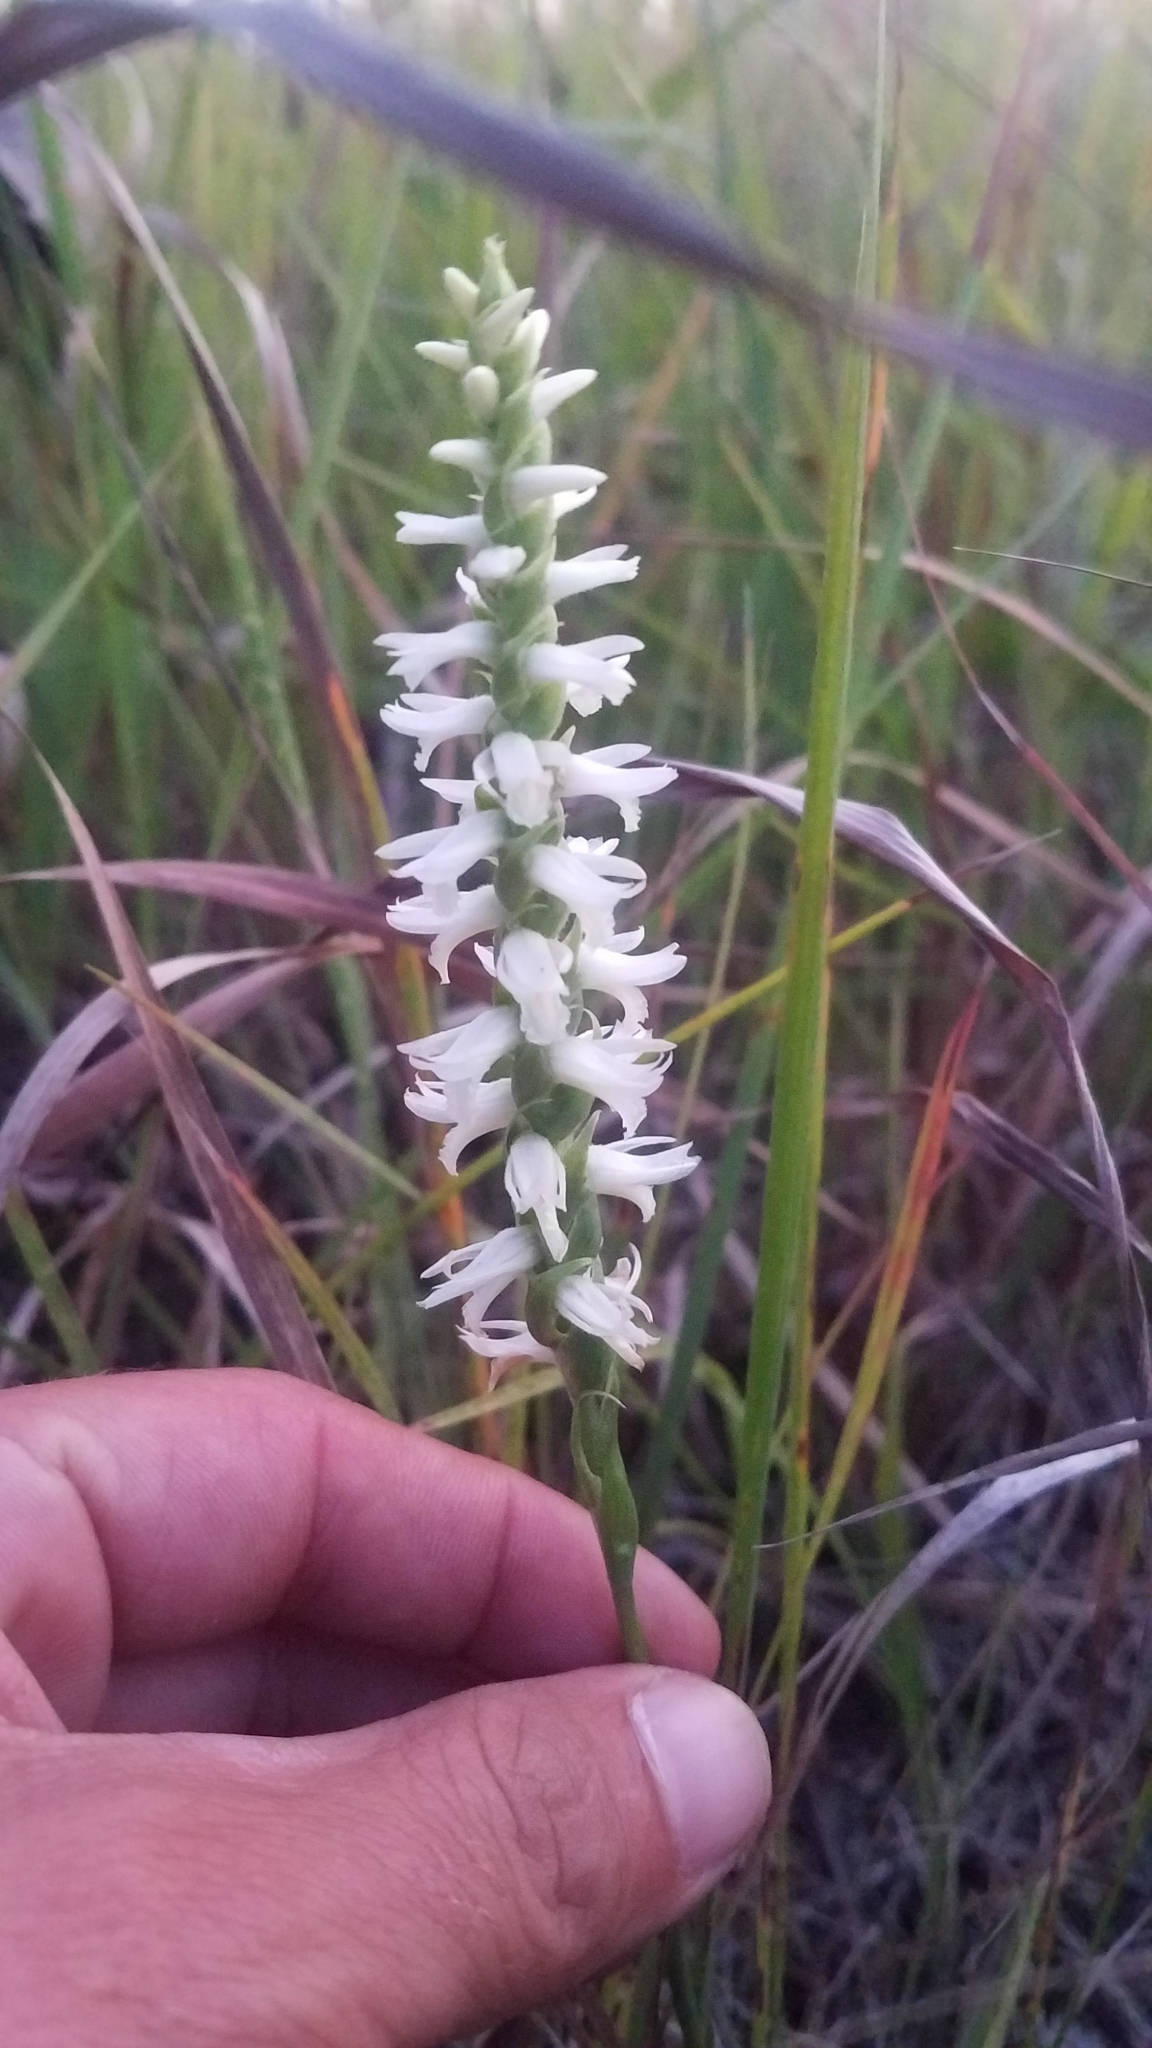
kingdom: Plantae
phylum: Tracheophyta
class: Liliopsida
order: Asparagales
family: Orchidaceae
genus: Spiranthes
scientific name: Spiranthes magnicamporum
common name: Great plains ladies'-tresses
